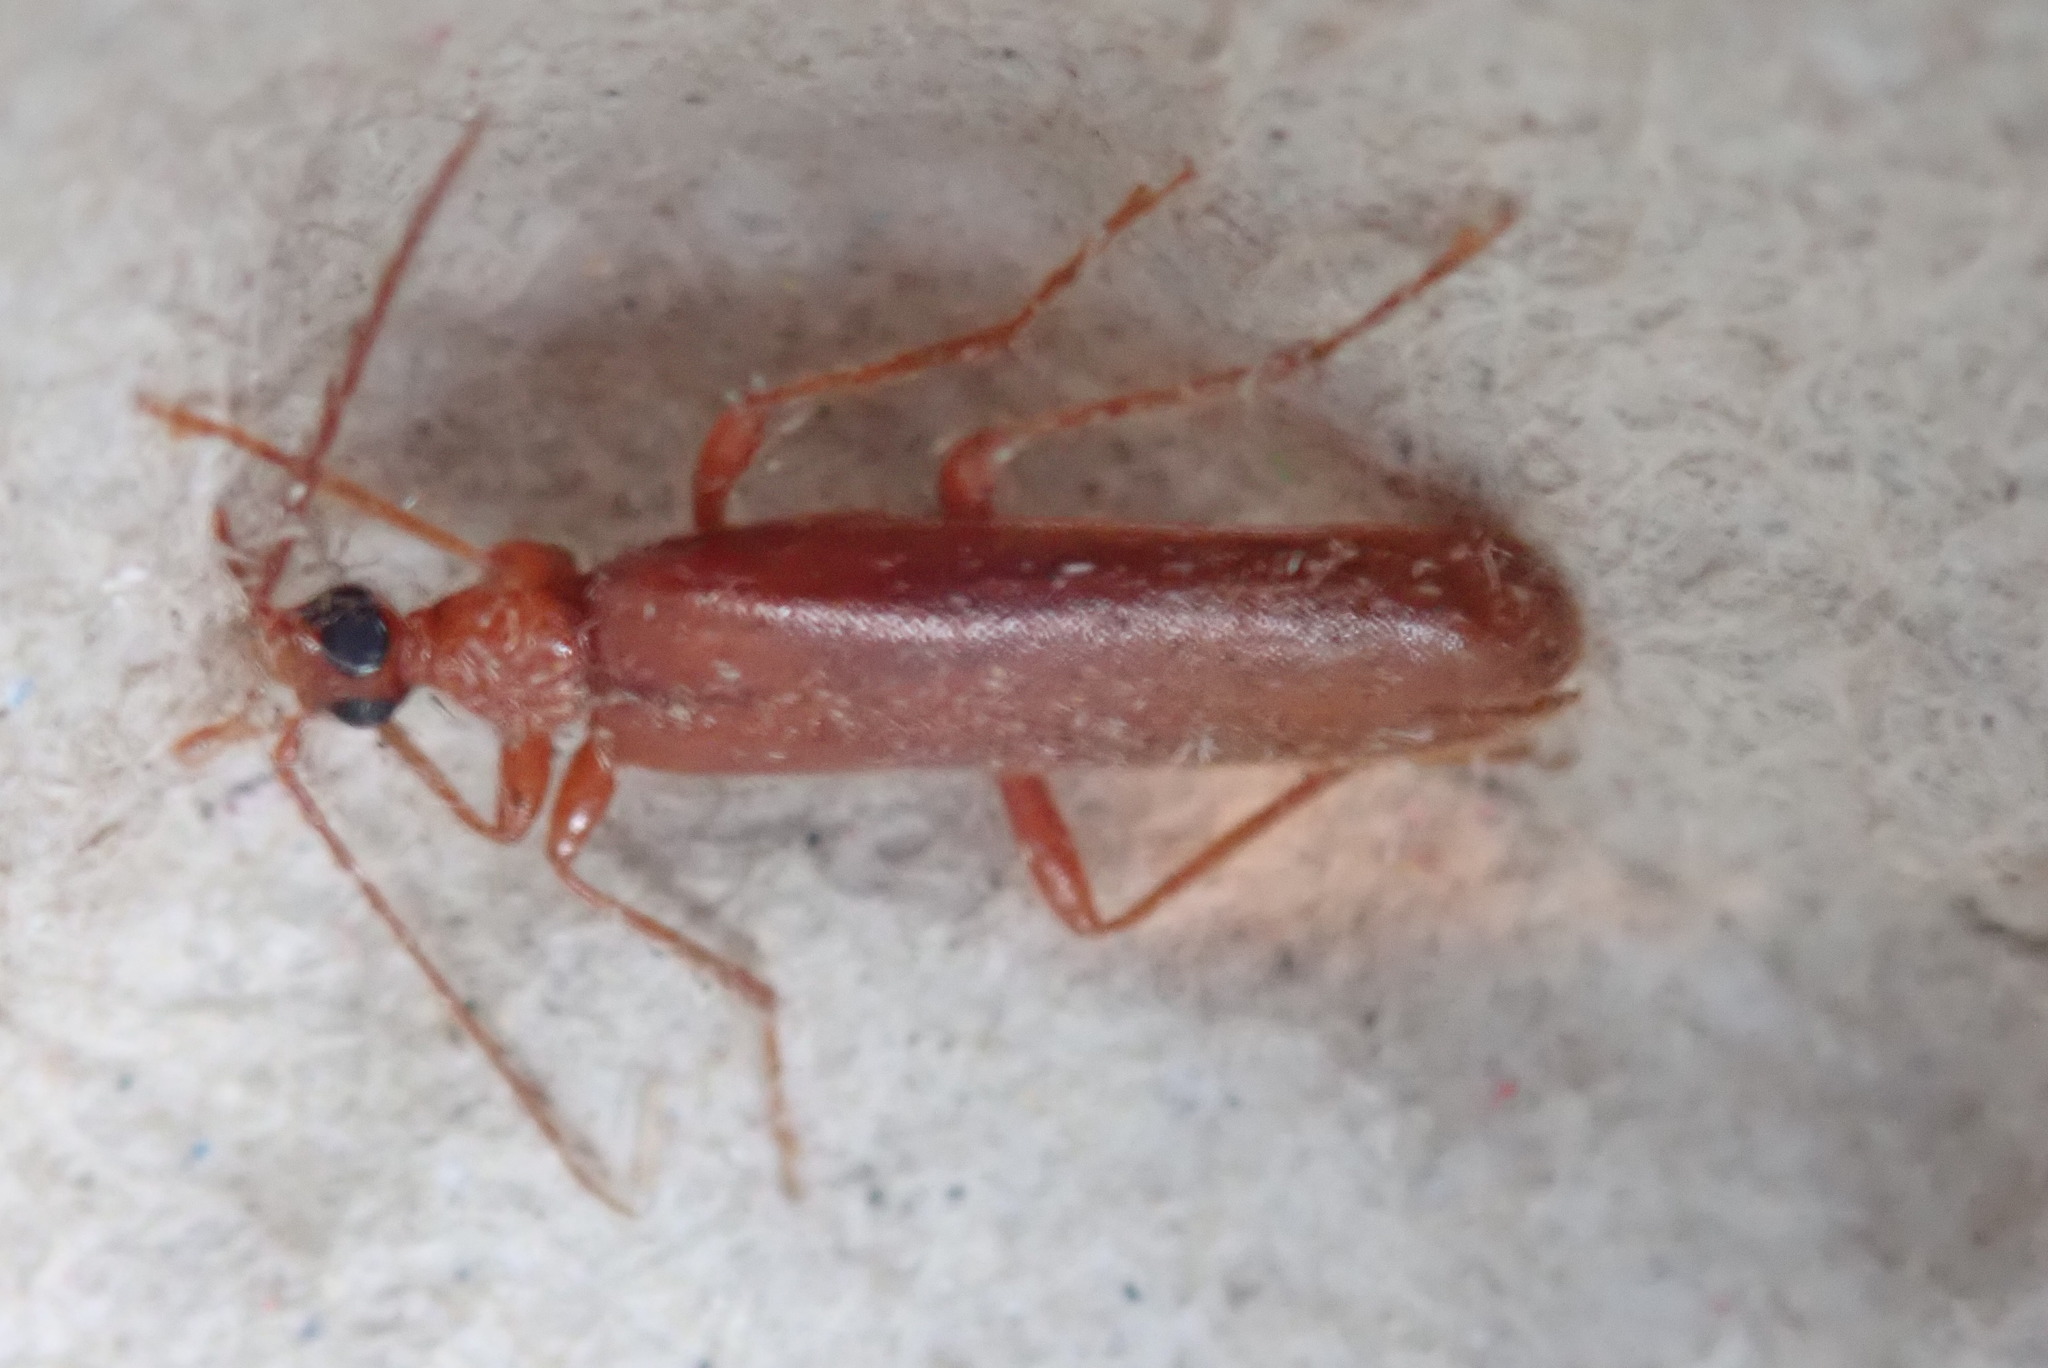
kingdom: Animalia
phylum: Arthropoda
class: Insecta
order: Coleoptera
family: Pyrochroidae
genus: Dendroides
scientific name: Dendroides concolor
